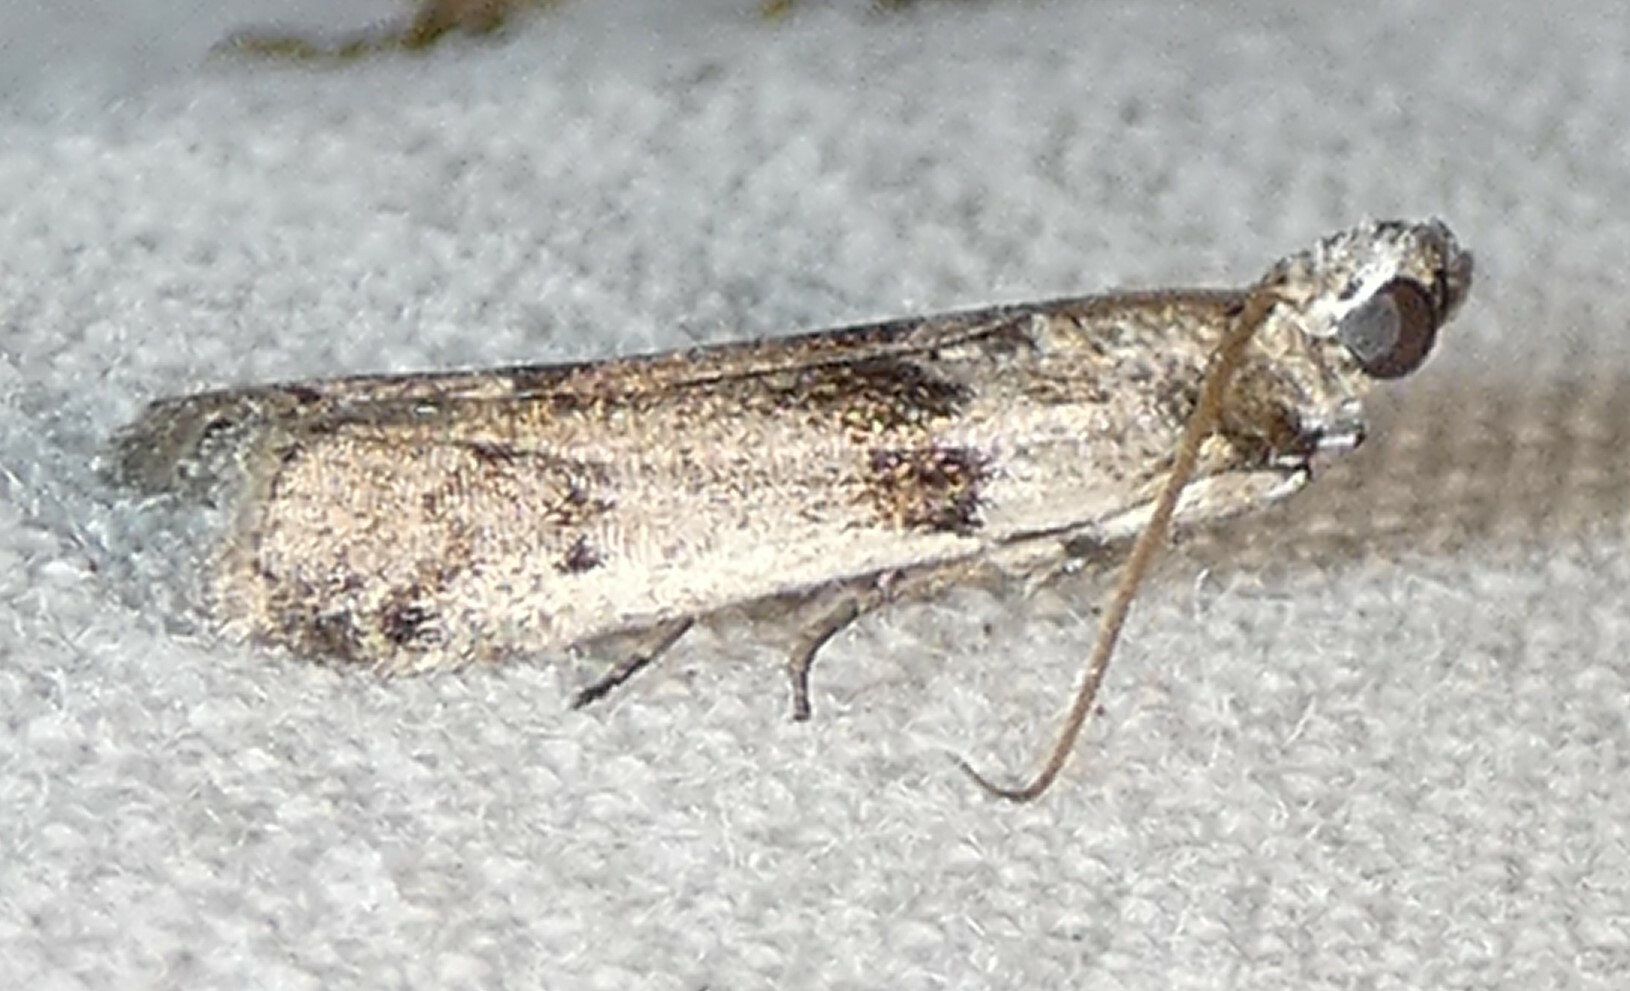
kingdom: Animalia
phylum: Arthropoda
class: Insecta
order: Lepidoptera
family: Pyralidae
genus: Homoeosoma
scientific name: Homoeosoma deceptorium
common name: Black-banded homoeosoma moth
